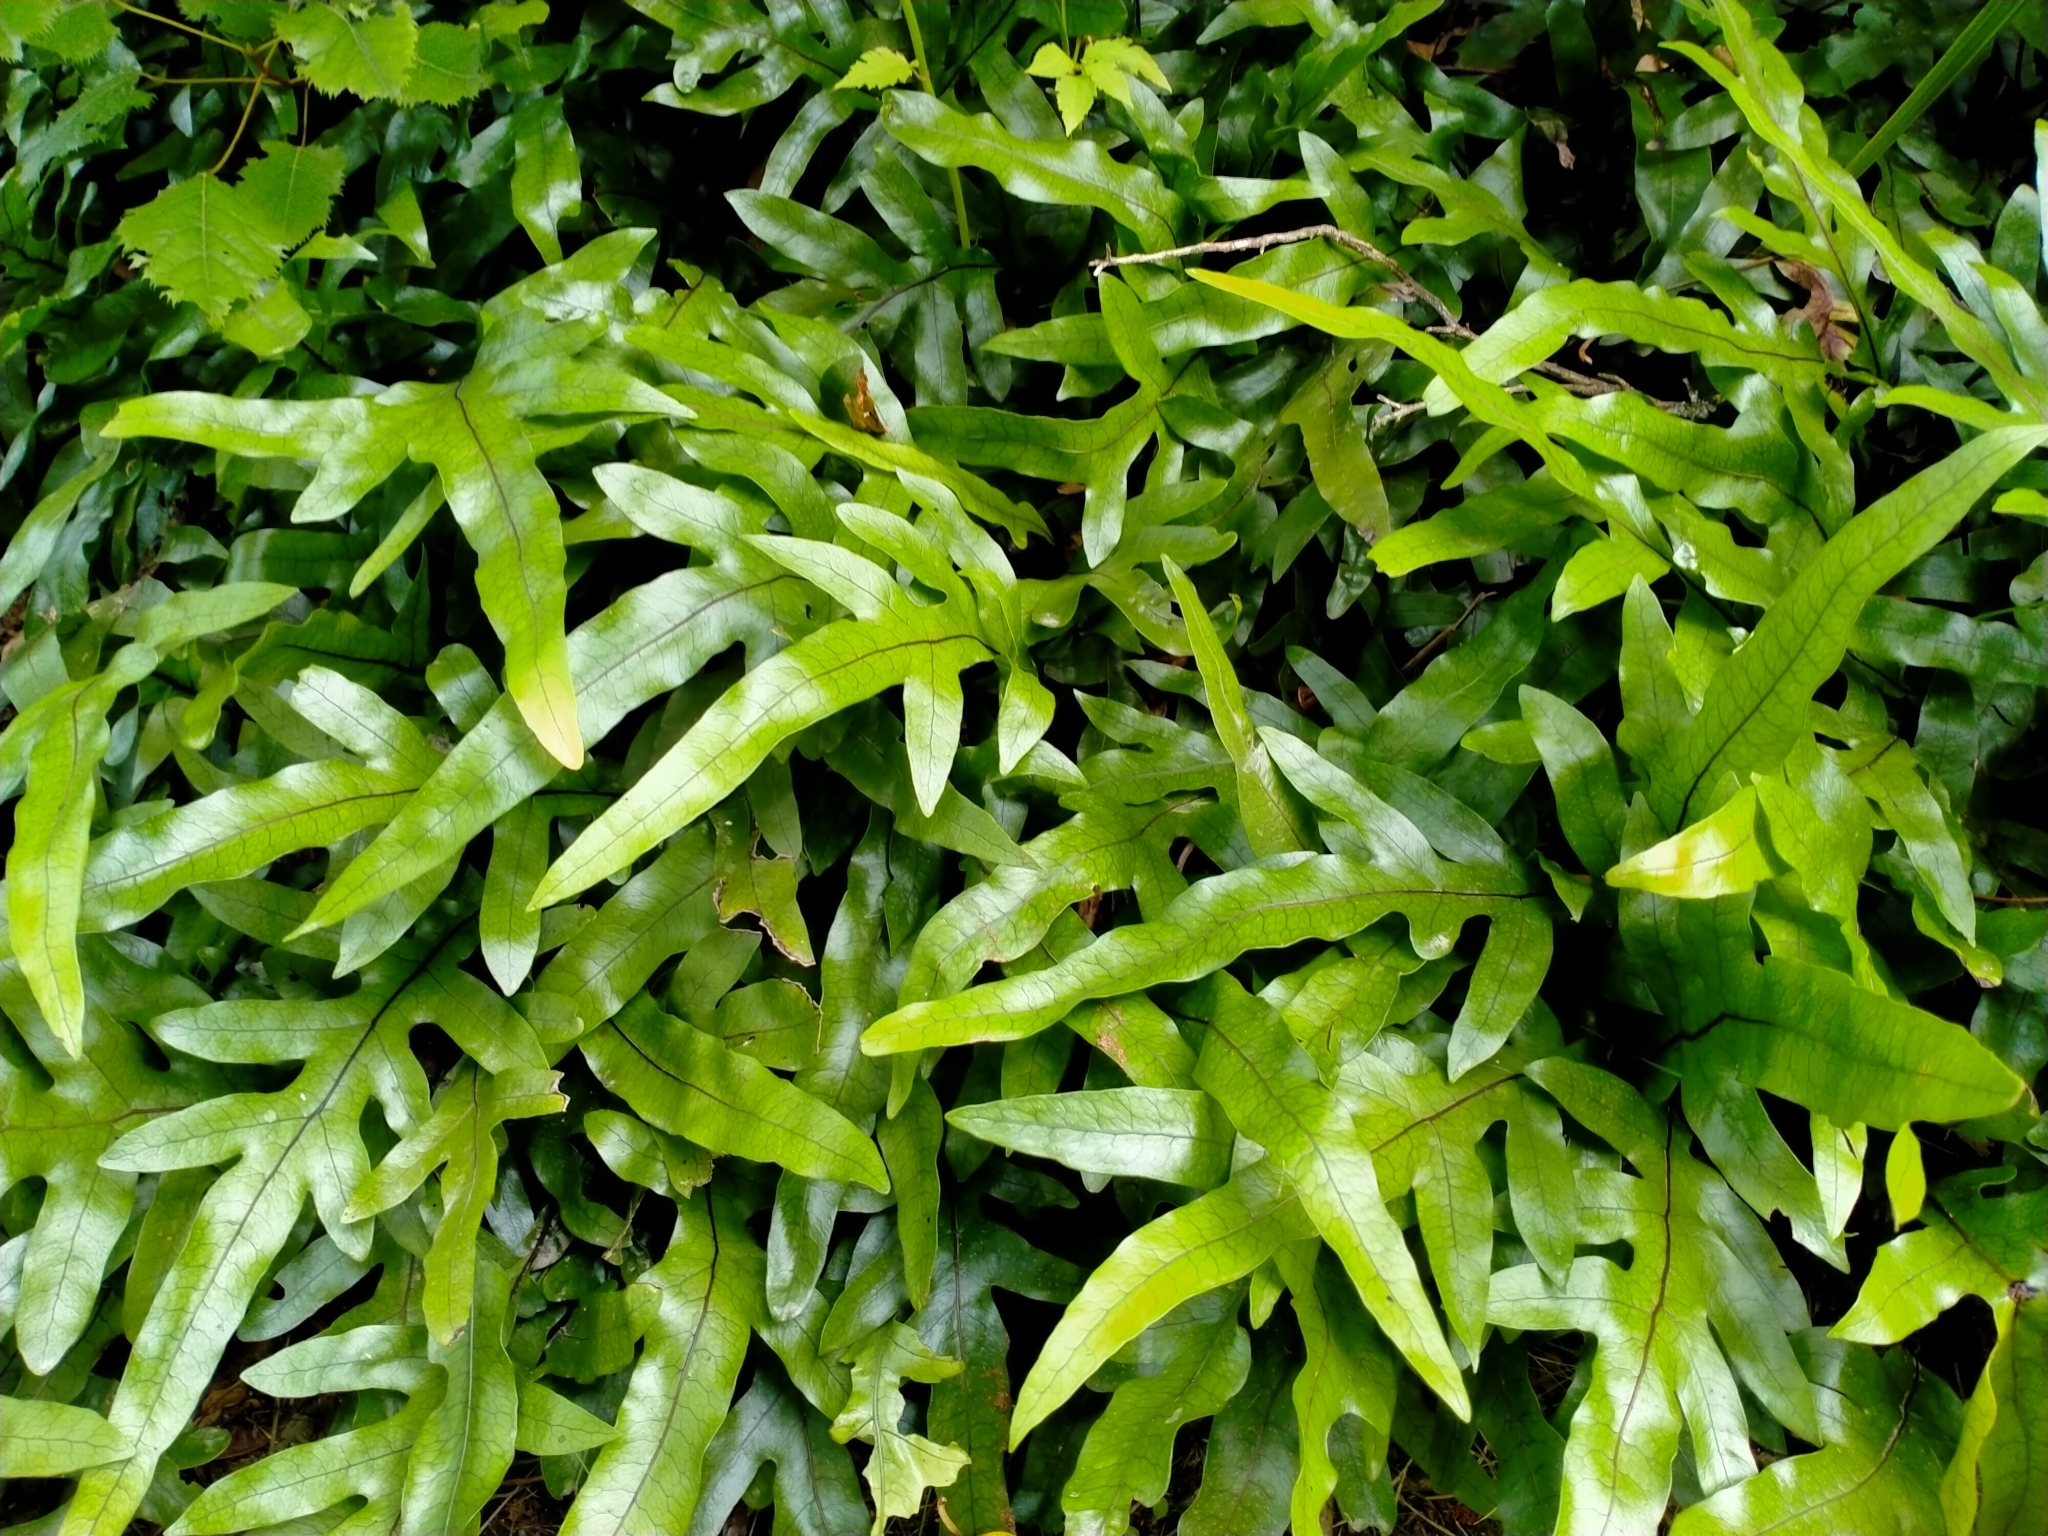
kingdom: Plantae
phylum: Tracheophyta
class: Polypodiopsida
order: Polypodiales
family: Polypodiaceae
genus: Lecanopteris
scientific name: Lecanopteris pustulata
